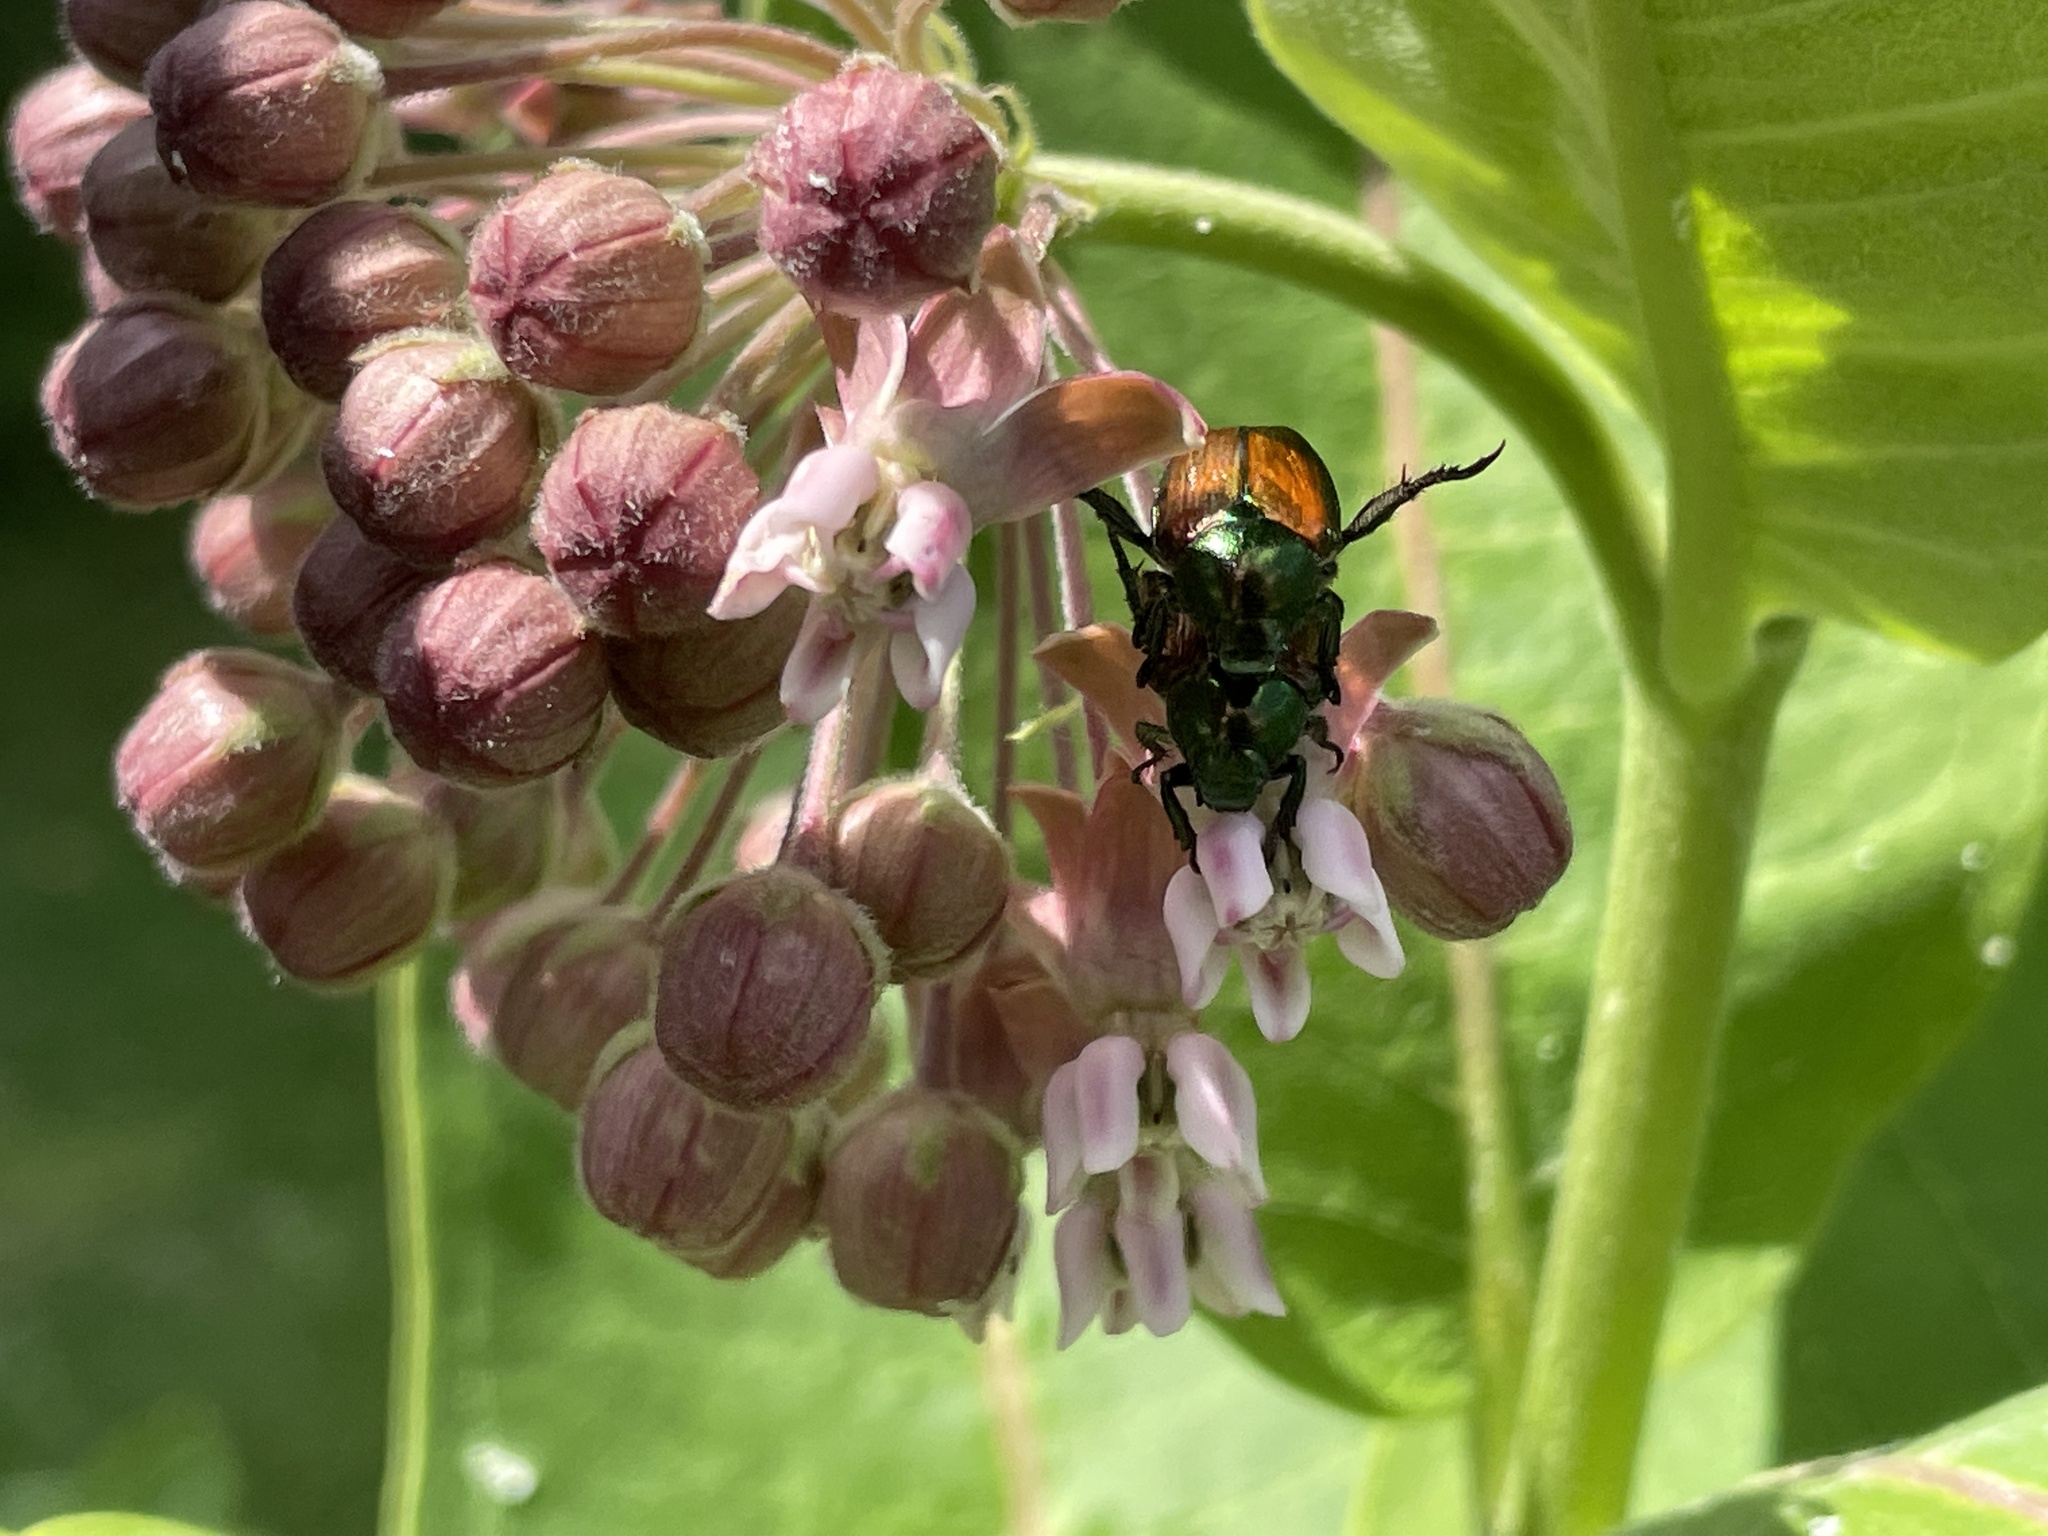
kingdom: Animalia
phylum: Arthropoda
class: Insecta
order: Coleoptera
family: Scarabaeidae
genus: Popillia
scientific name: Popillia japonica
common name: Japanese beetle
